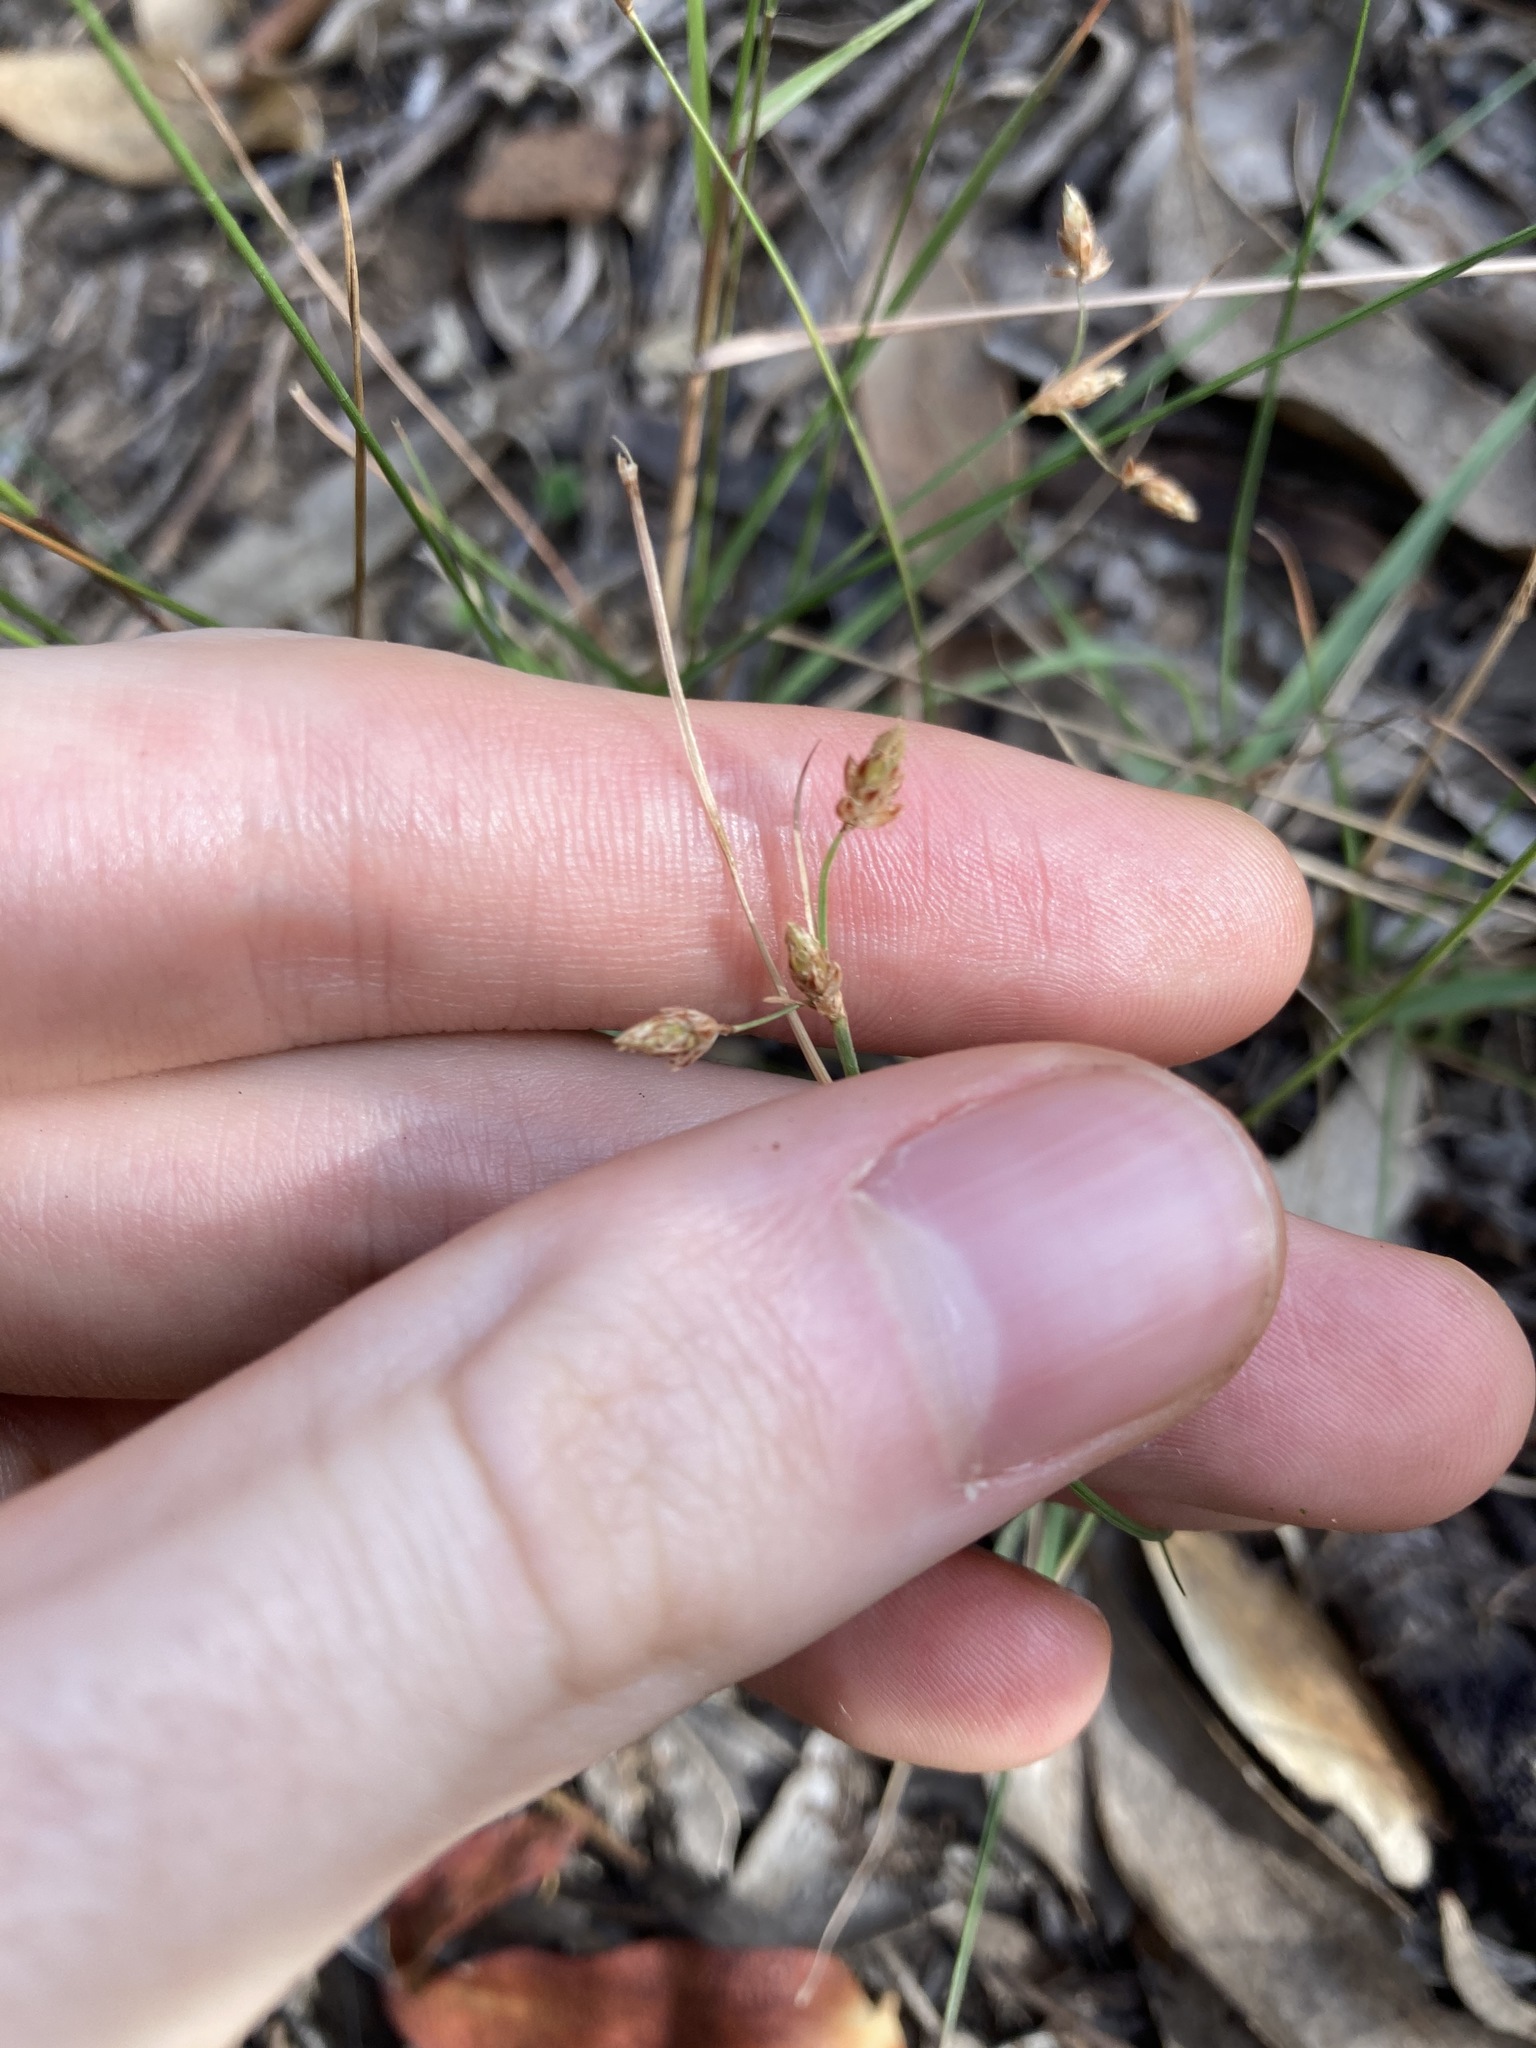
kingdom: Plantae
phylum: Tracheophyta
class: Liliopsida
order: Poales
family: Cyperaceae
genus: Fimbristylis
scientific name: Fimbristylis dichotoma
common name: Forked fimbry
